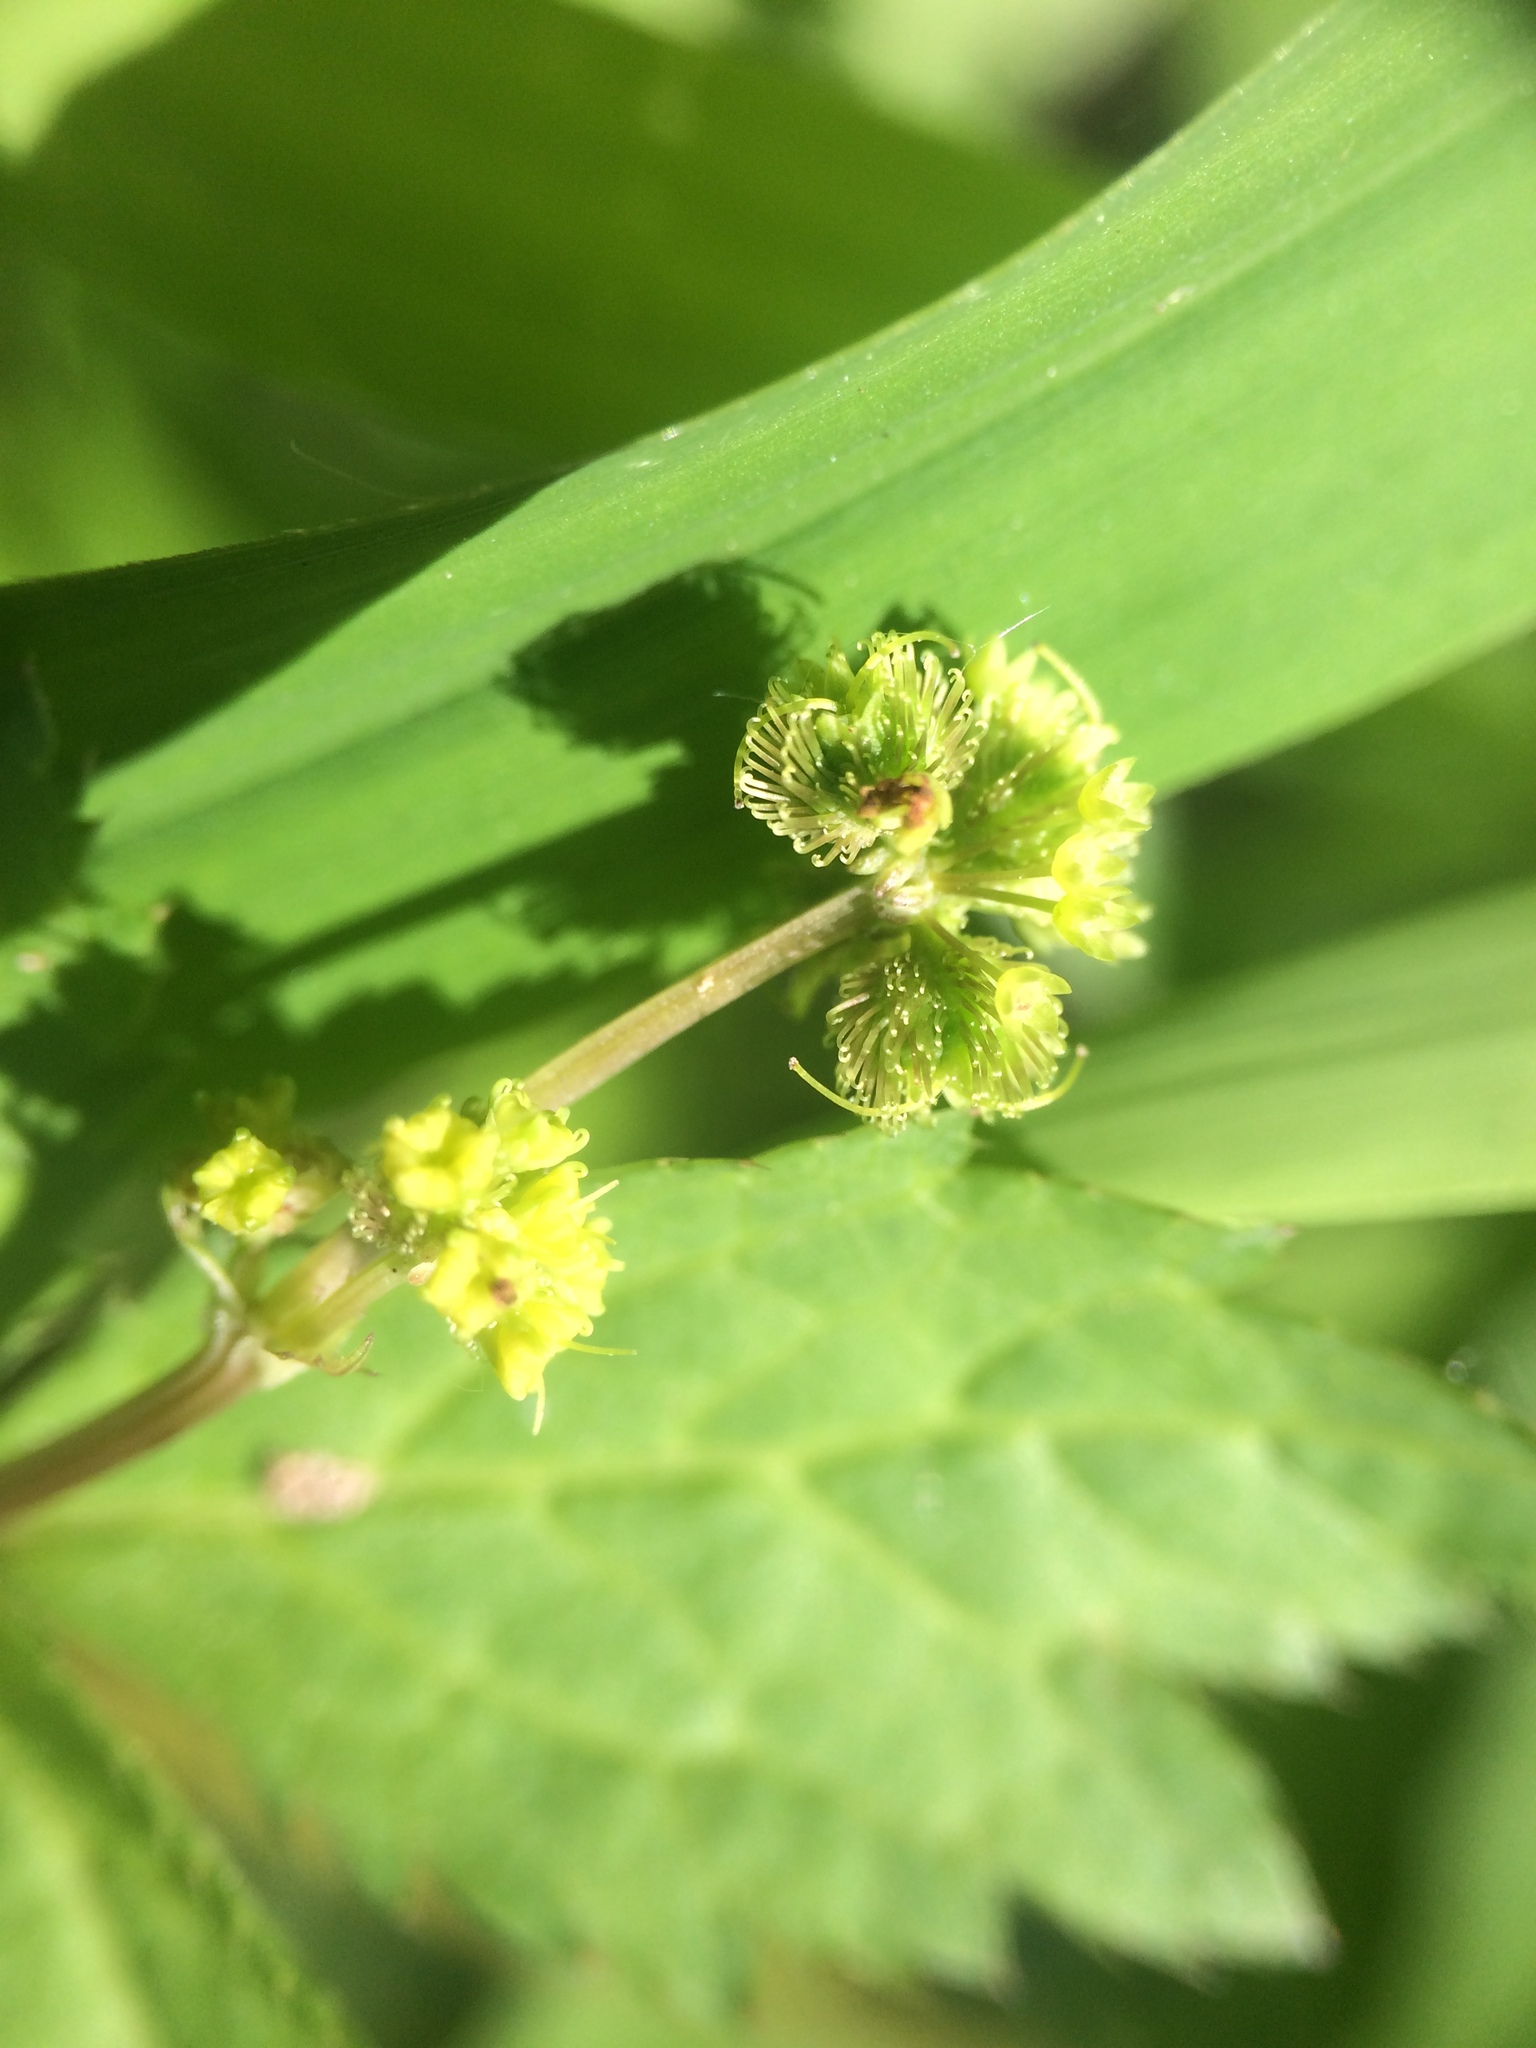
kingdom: Plantae
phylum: Tracheophyta
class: Magnoliopsida
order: Apiales
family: Apiaceae
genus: Sanicula
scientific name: Sanicula odorata
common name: Cluster sanicle
